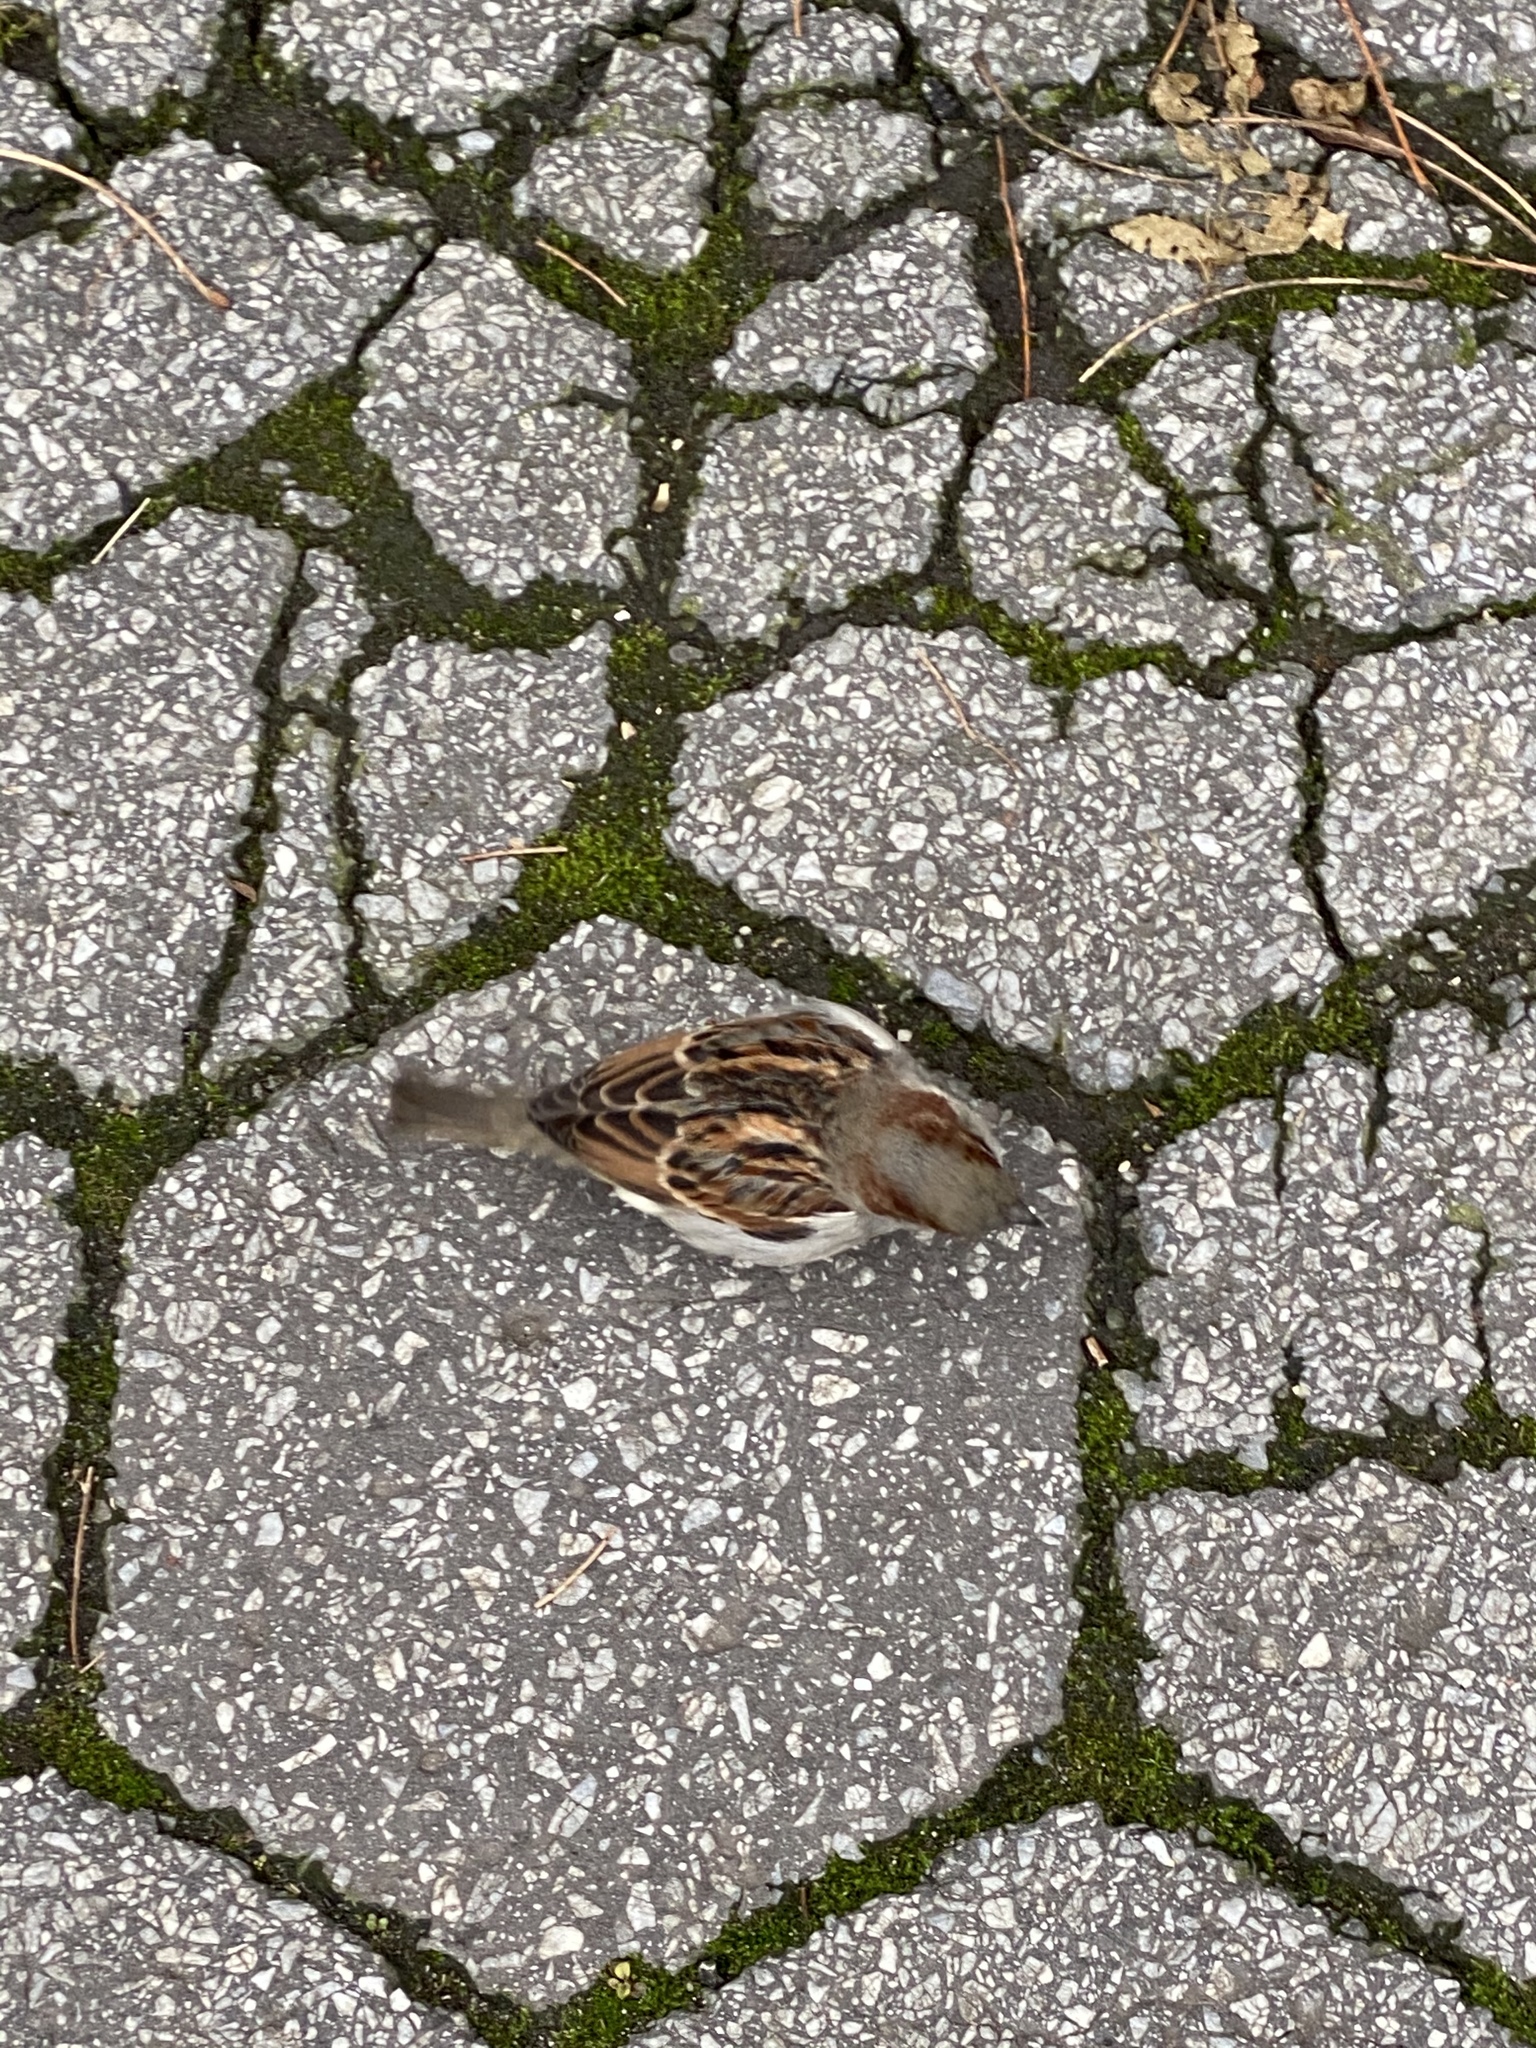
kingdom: Animalia
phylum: Chordata
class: Aves
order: Passeriformes
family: Passeridae
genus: Passer
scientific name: Passer domesticus
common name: House sparrow
